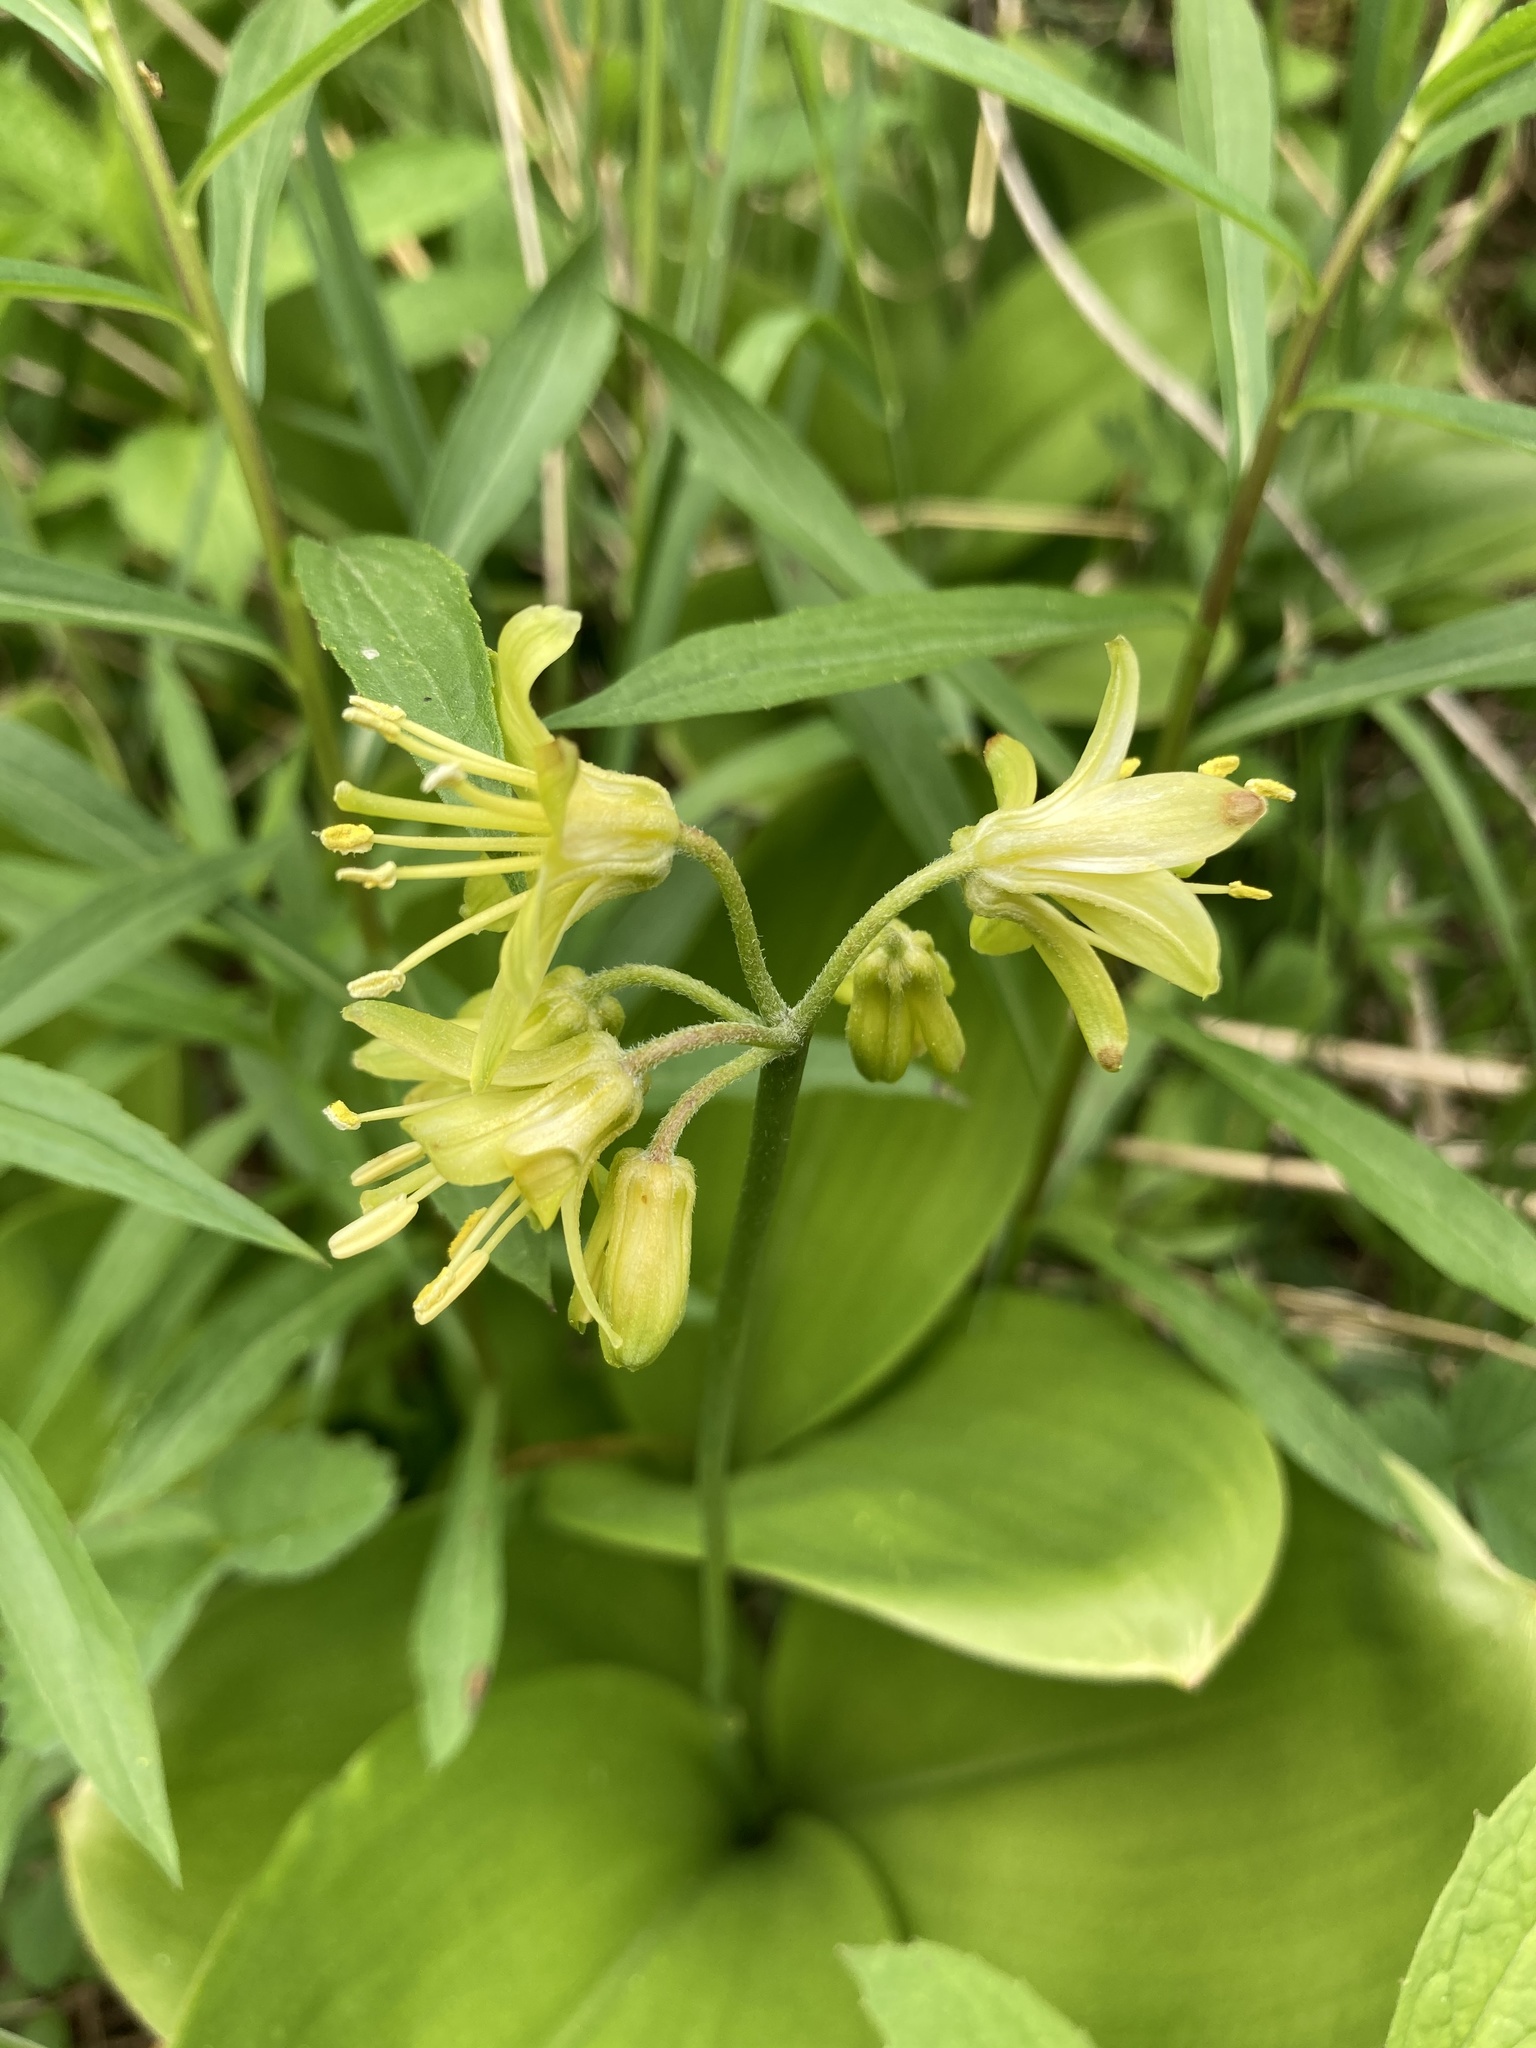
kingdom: Plantae
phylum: Tracheophyta
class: Liliopsida
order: Liliales
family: Liliaceae
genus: Clintonia
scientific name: Clintonia borealis
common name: Yellow clintonia
